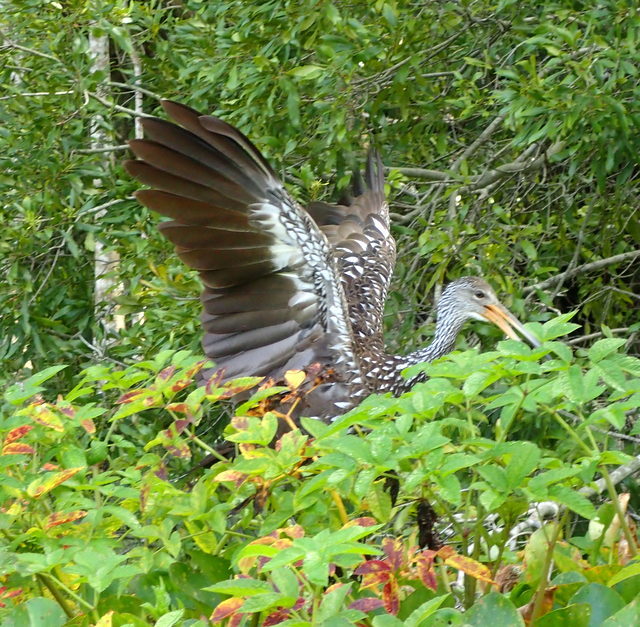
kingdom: Animalia
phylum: Chordata
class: Aves
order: Gruiformes
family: Aramidae
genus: Aramus
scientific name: Aramus guarauna
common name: Limpkin
